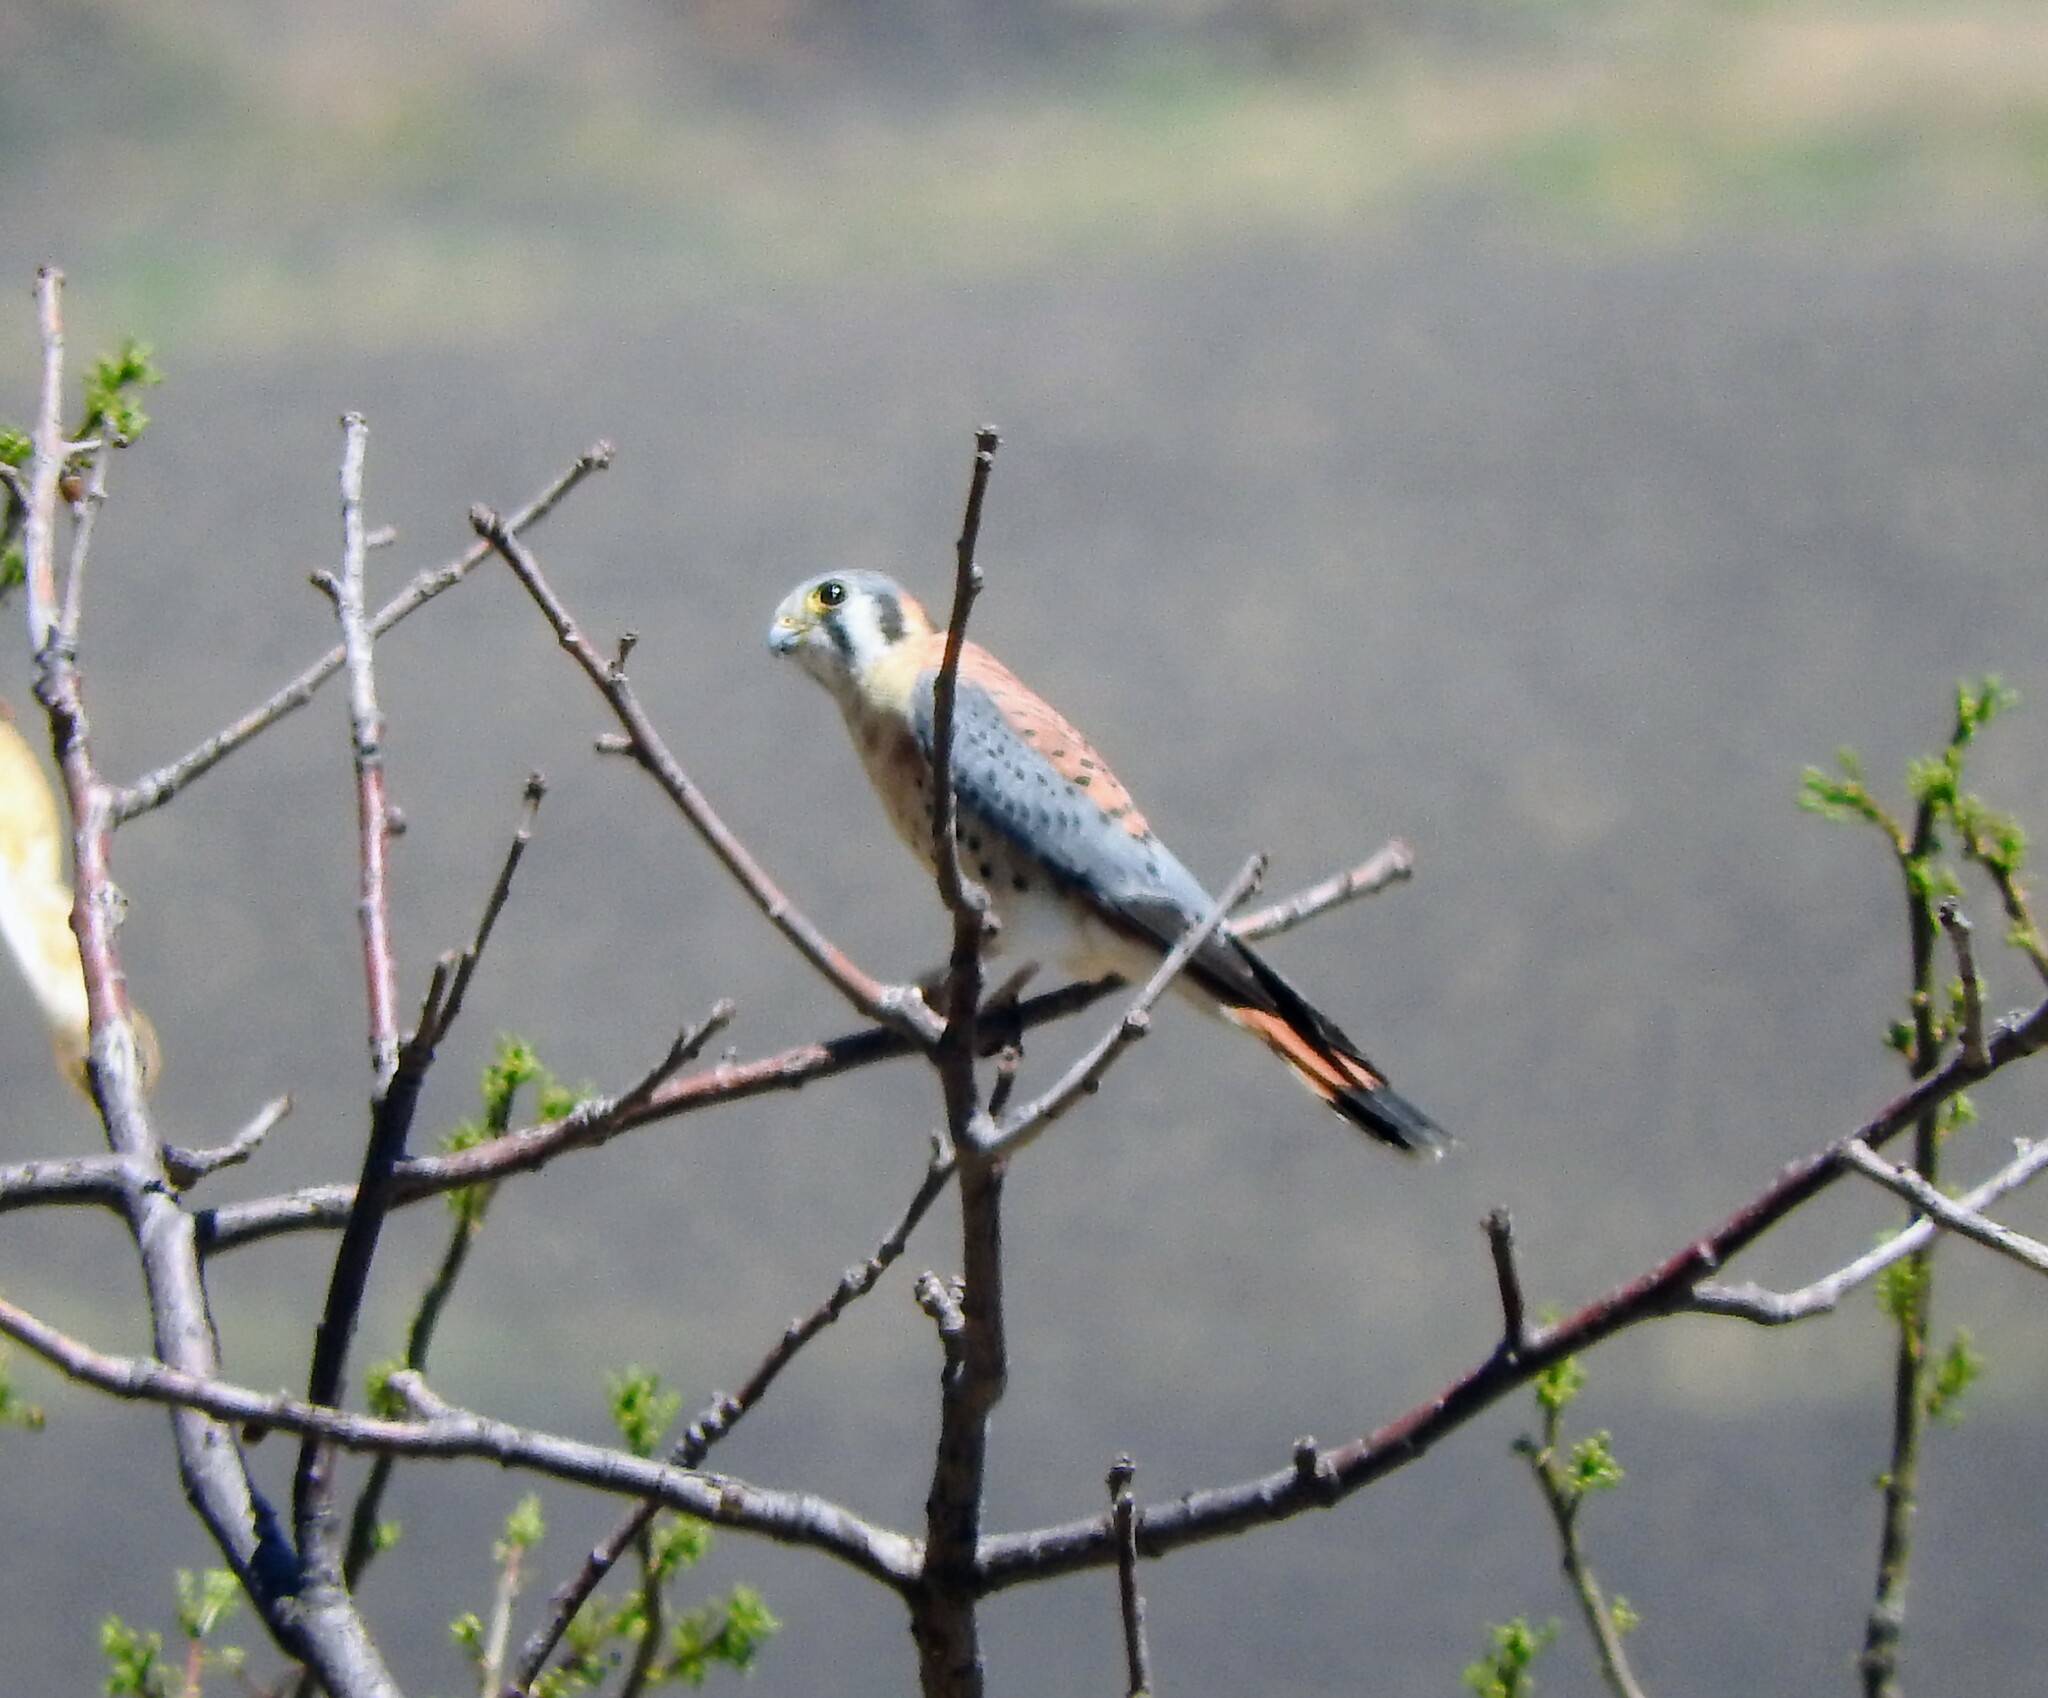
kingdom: Animalia
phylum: Chordata
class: Aves
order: Falconiformes
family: Falconidae
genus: Falco
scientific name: Falco sparverius
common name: American kestrel
